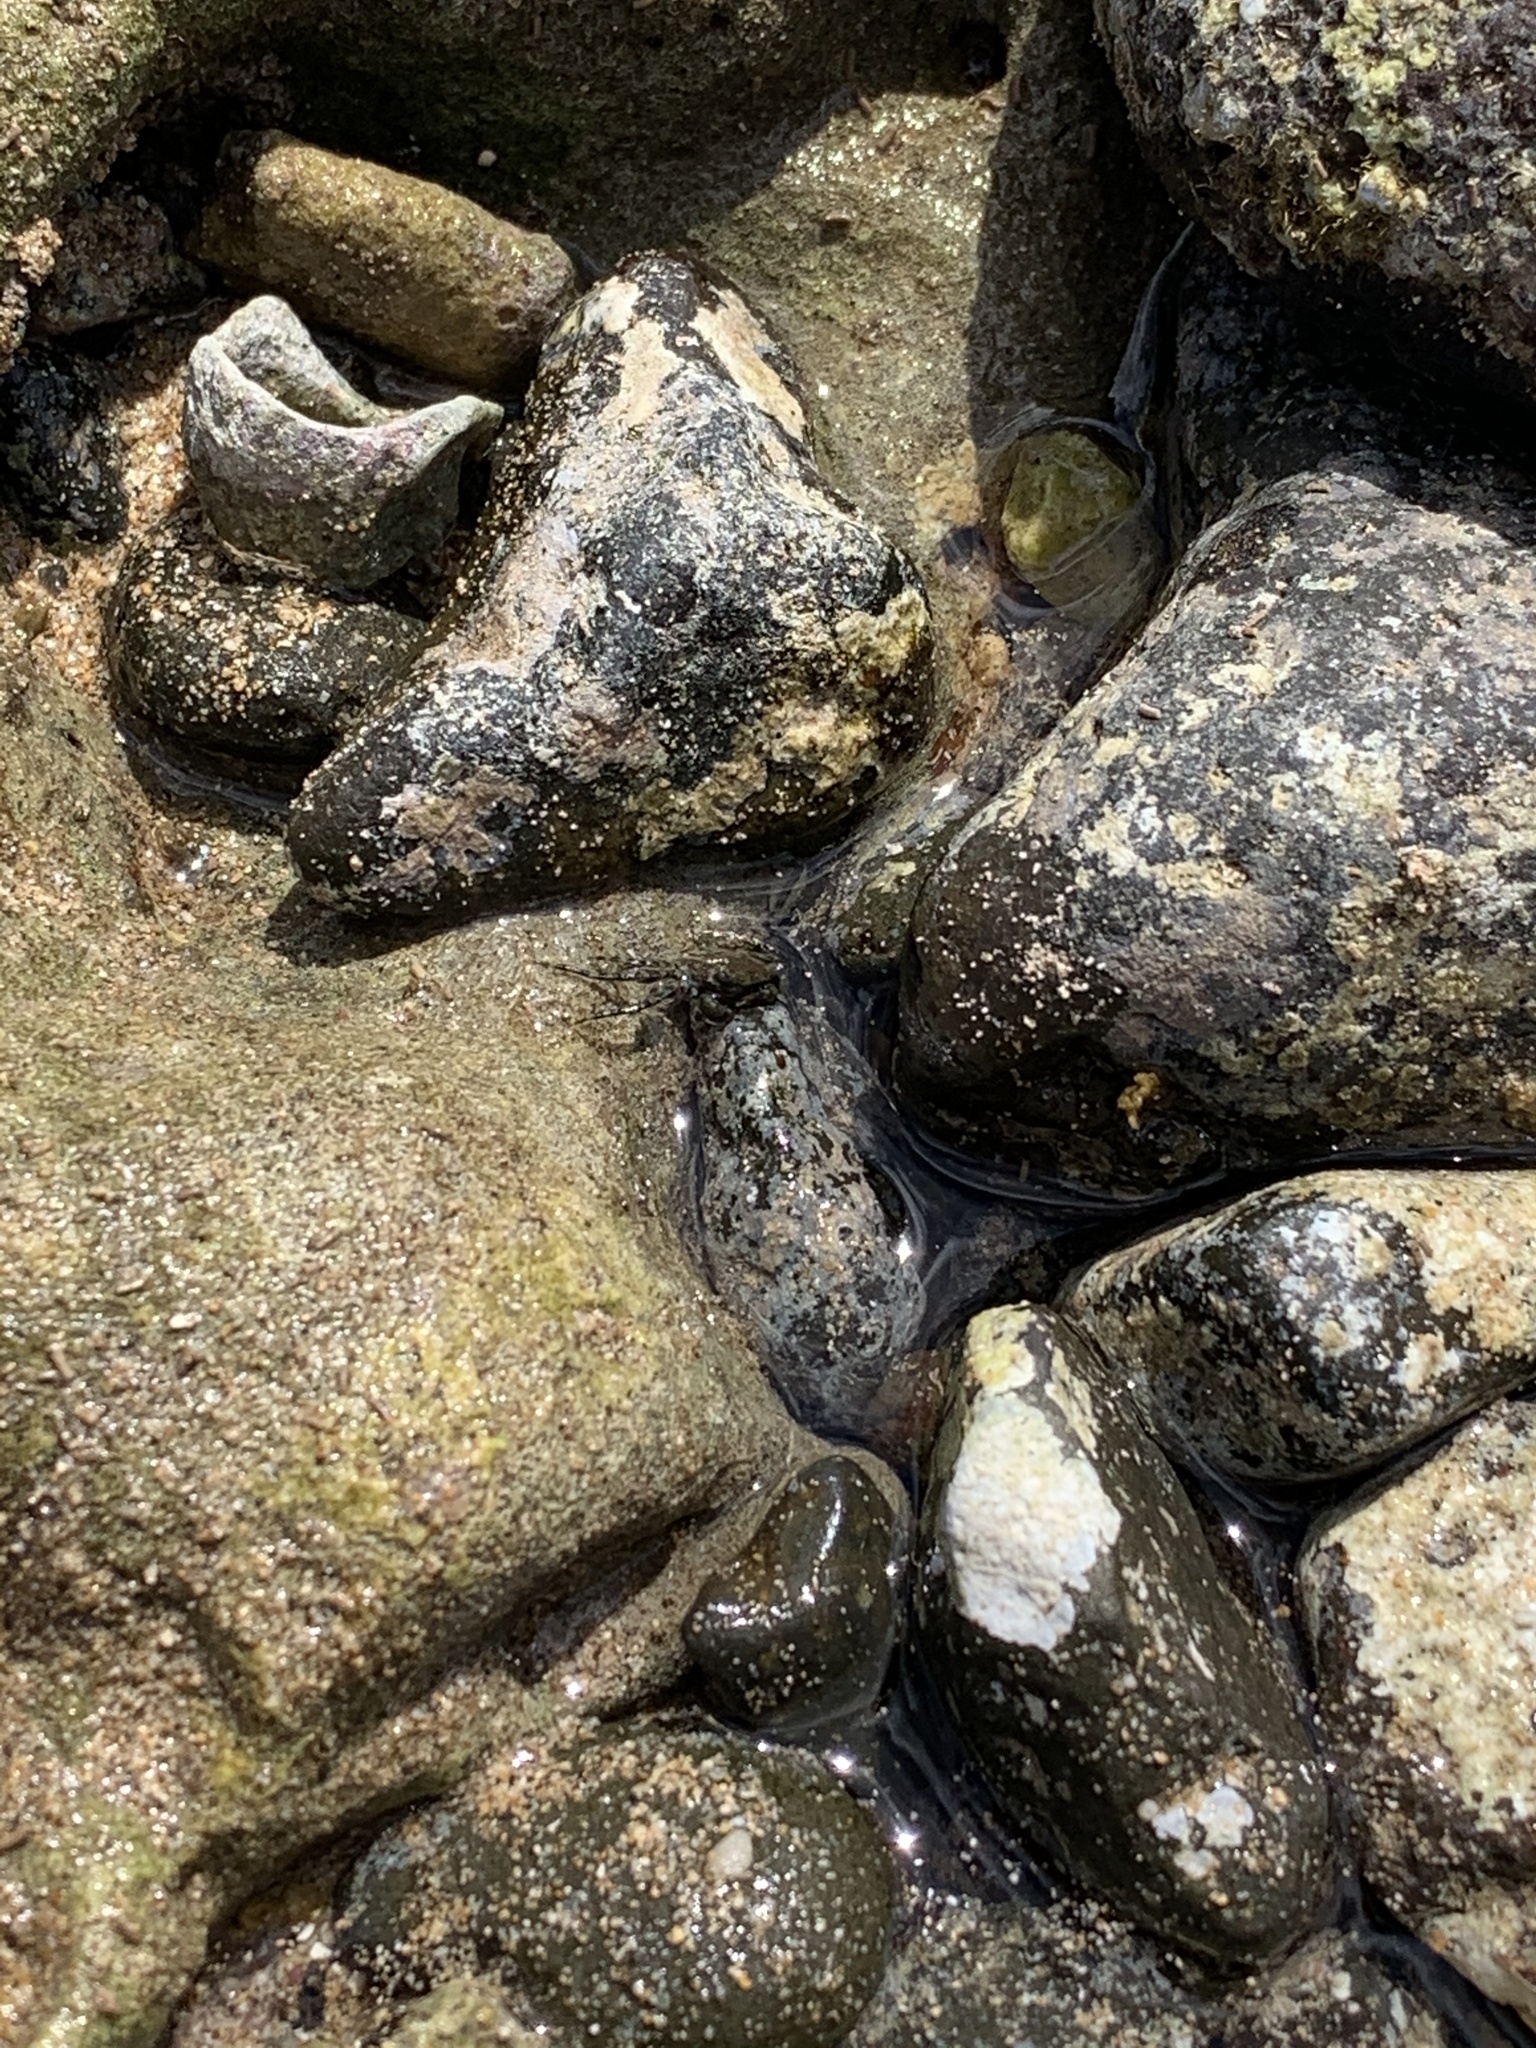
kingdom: Animalia
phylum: Arthropoda
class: Malacostraca
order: Decapoda
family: Grapsidae
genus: Grapsus
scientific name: Grapsus tenuicrustatus
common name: Natal lightfoot crab
